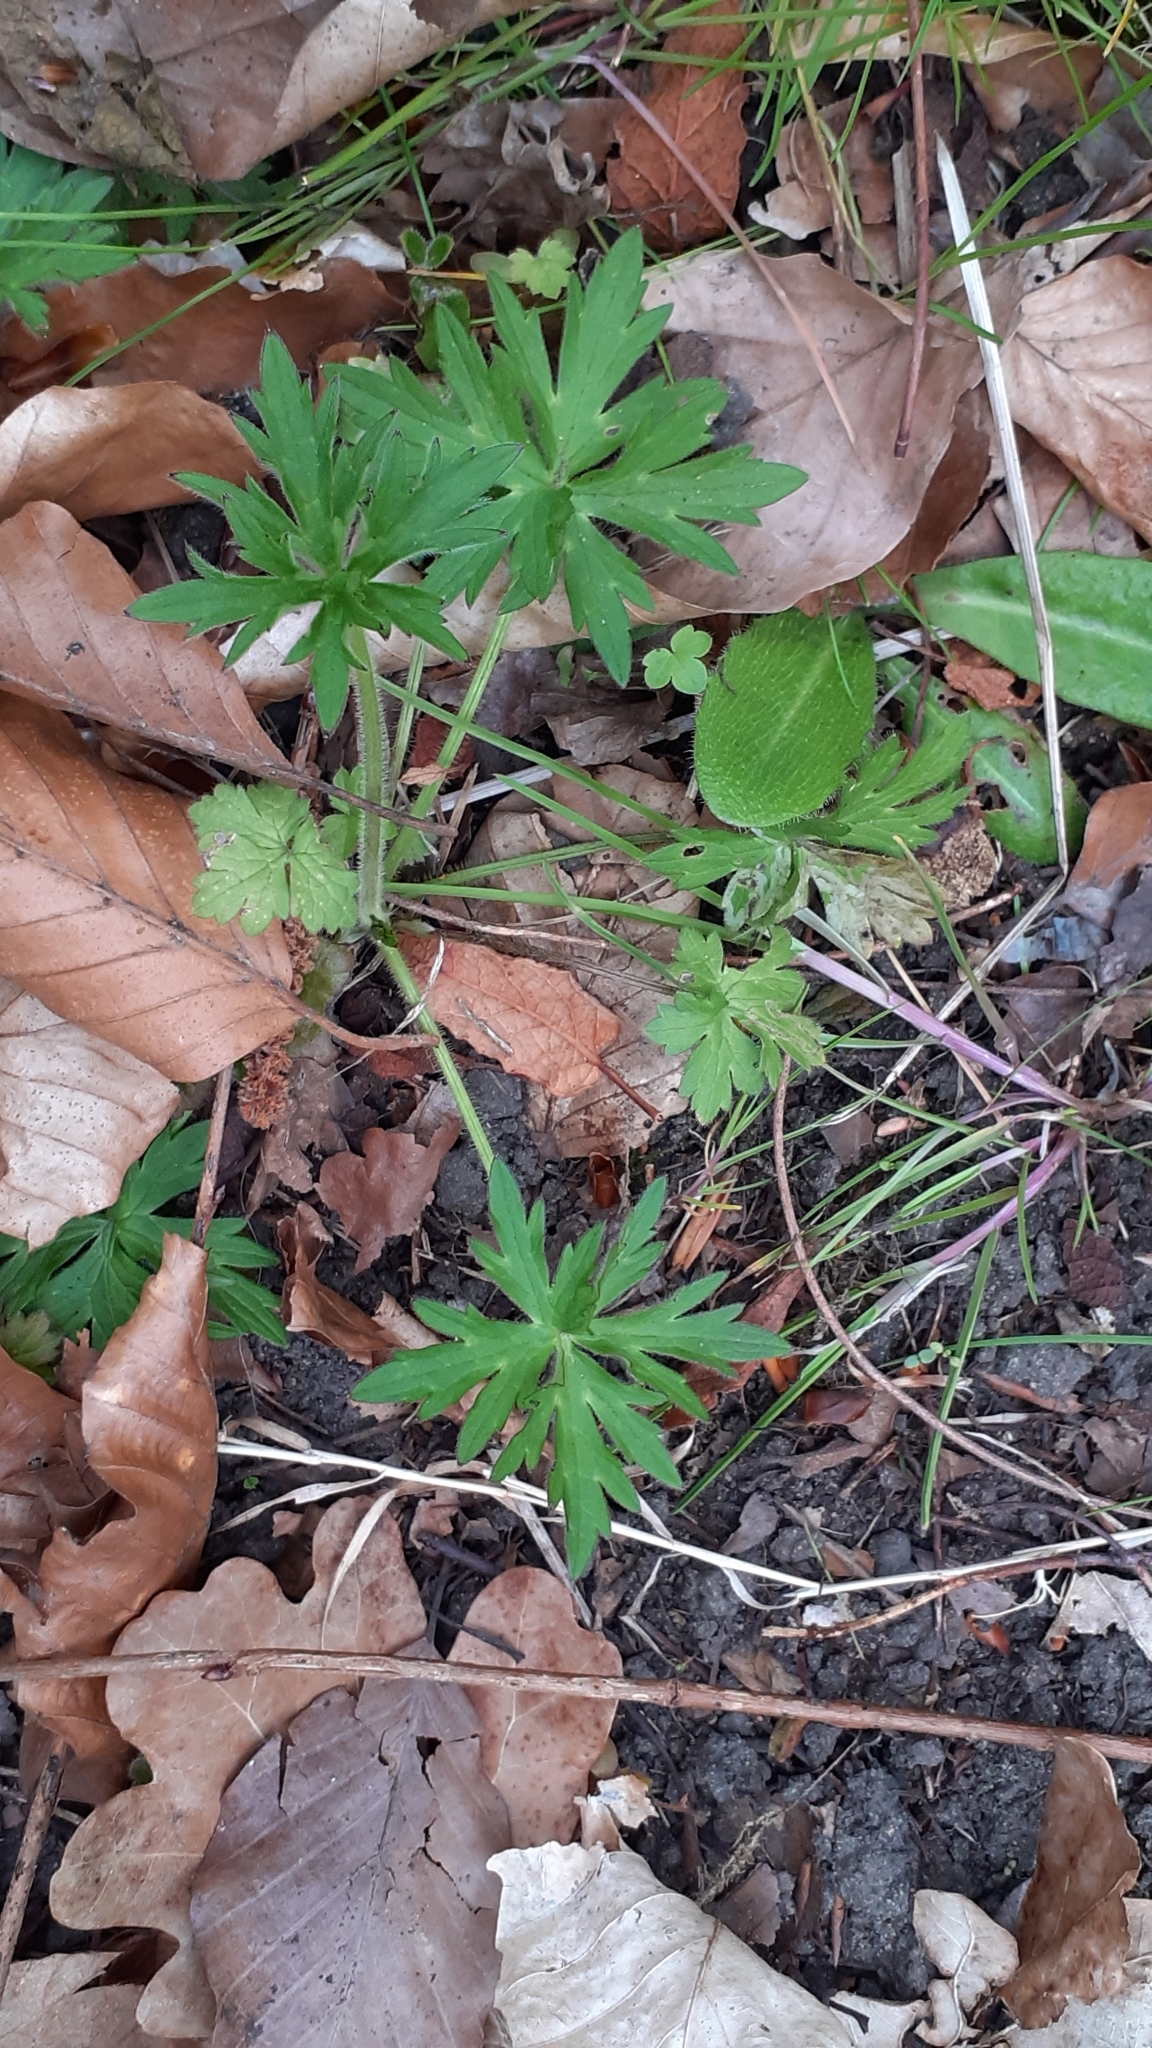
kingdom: Plantae
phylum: Tracheophyta
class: Magnoliopsida
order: Ranunculales
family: Ranunculaceae
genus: Ranunculus
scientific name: Ranunculus repens
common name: Creeping buttercup
